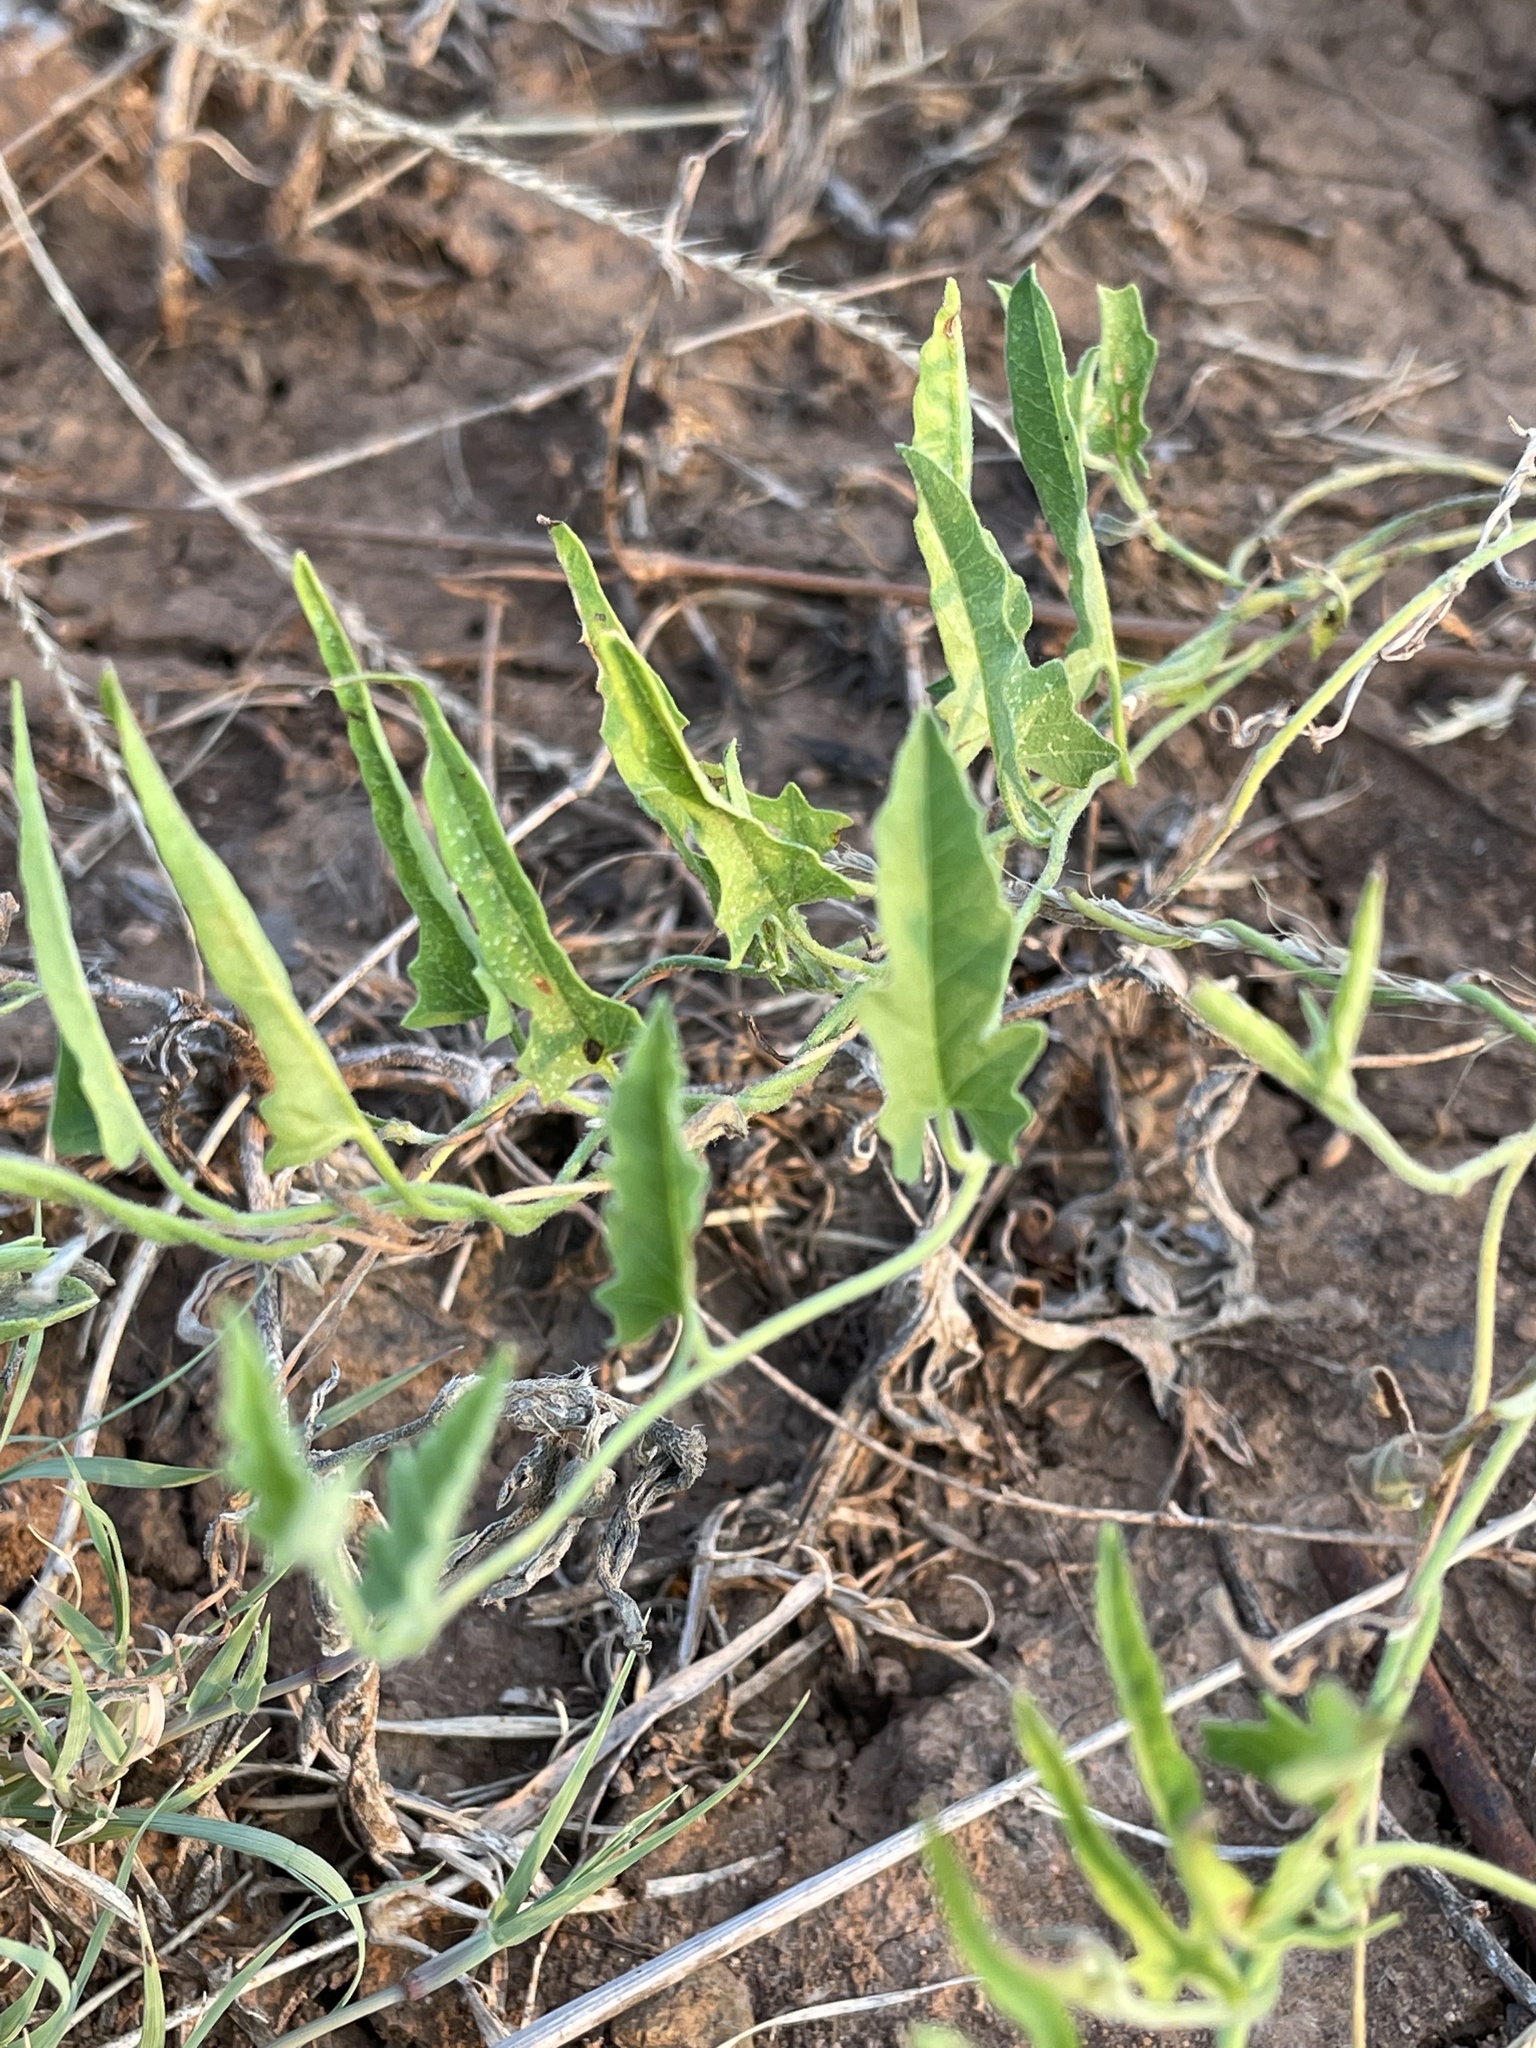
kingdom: Plantae
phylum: Tracheophyta
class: Magnoliopsida
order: Solanales
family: Convolvulaceae
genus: Convolvulus
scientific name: Convolvulus equitans
